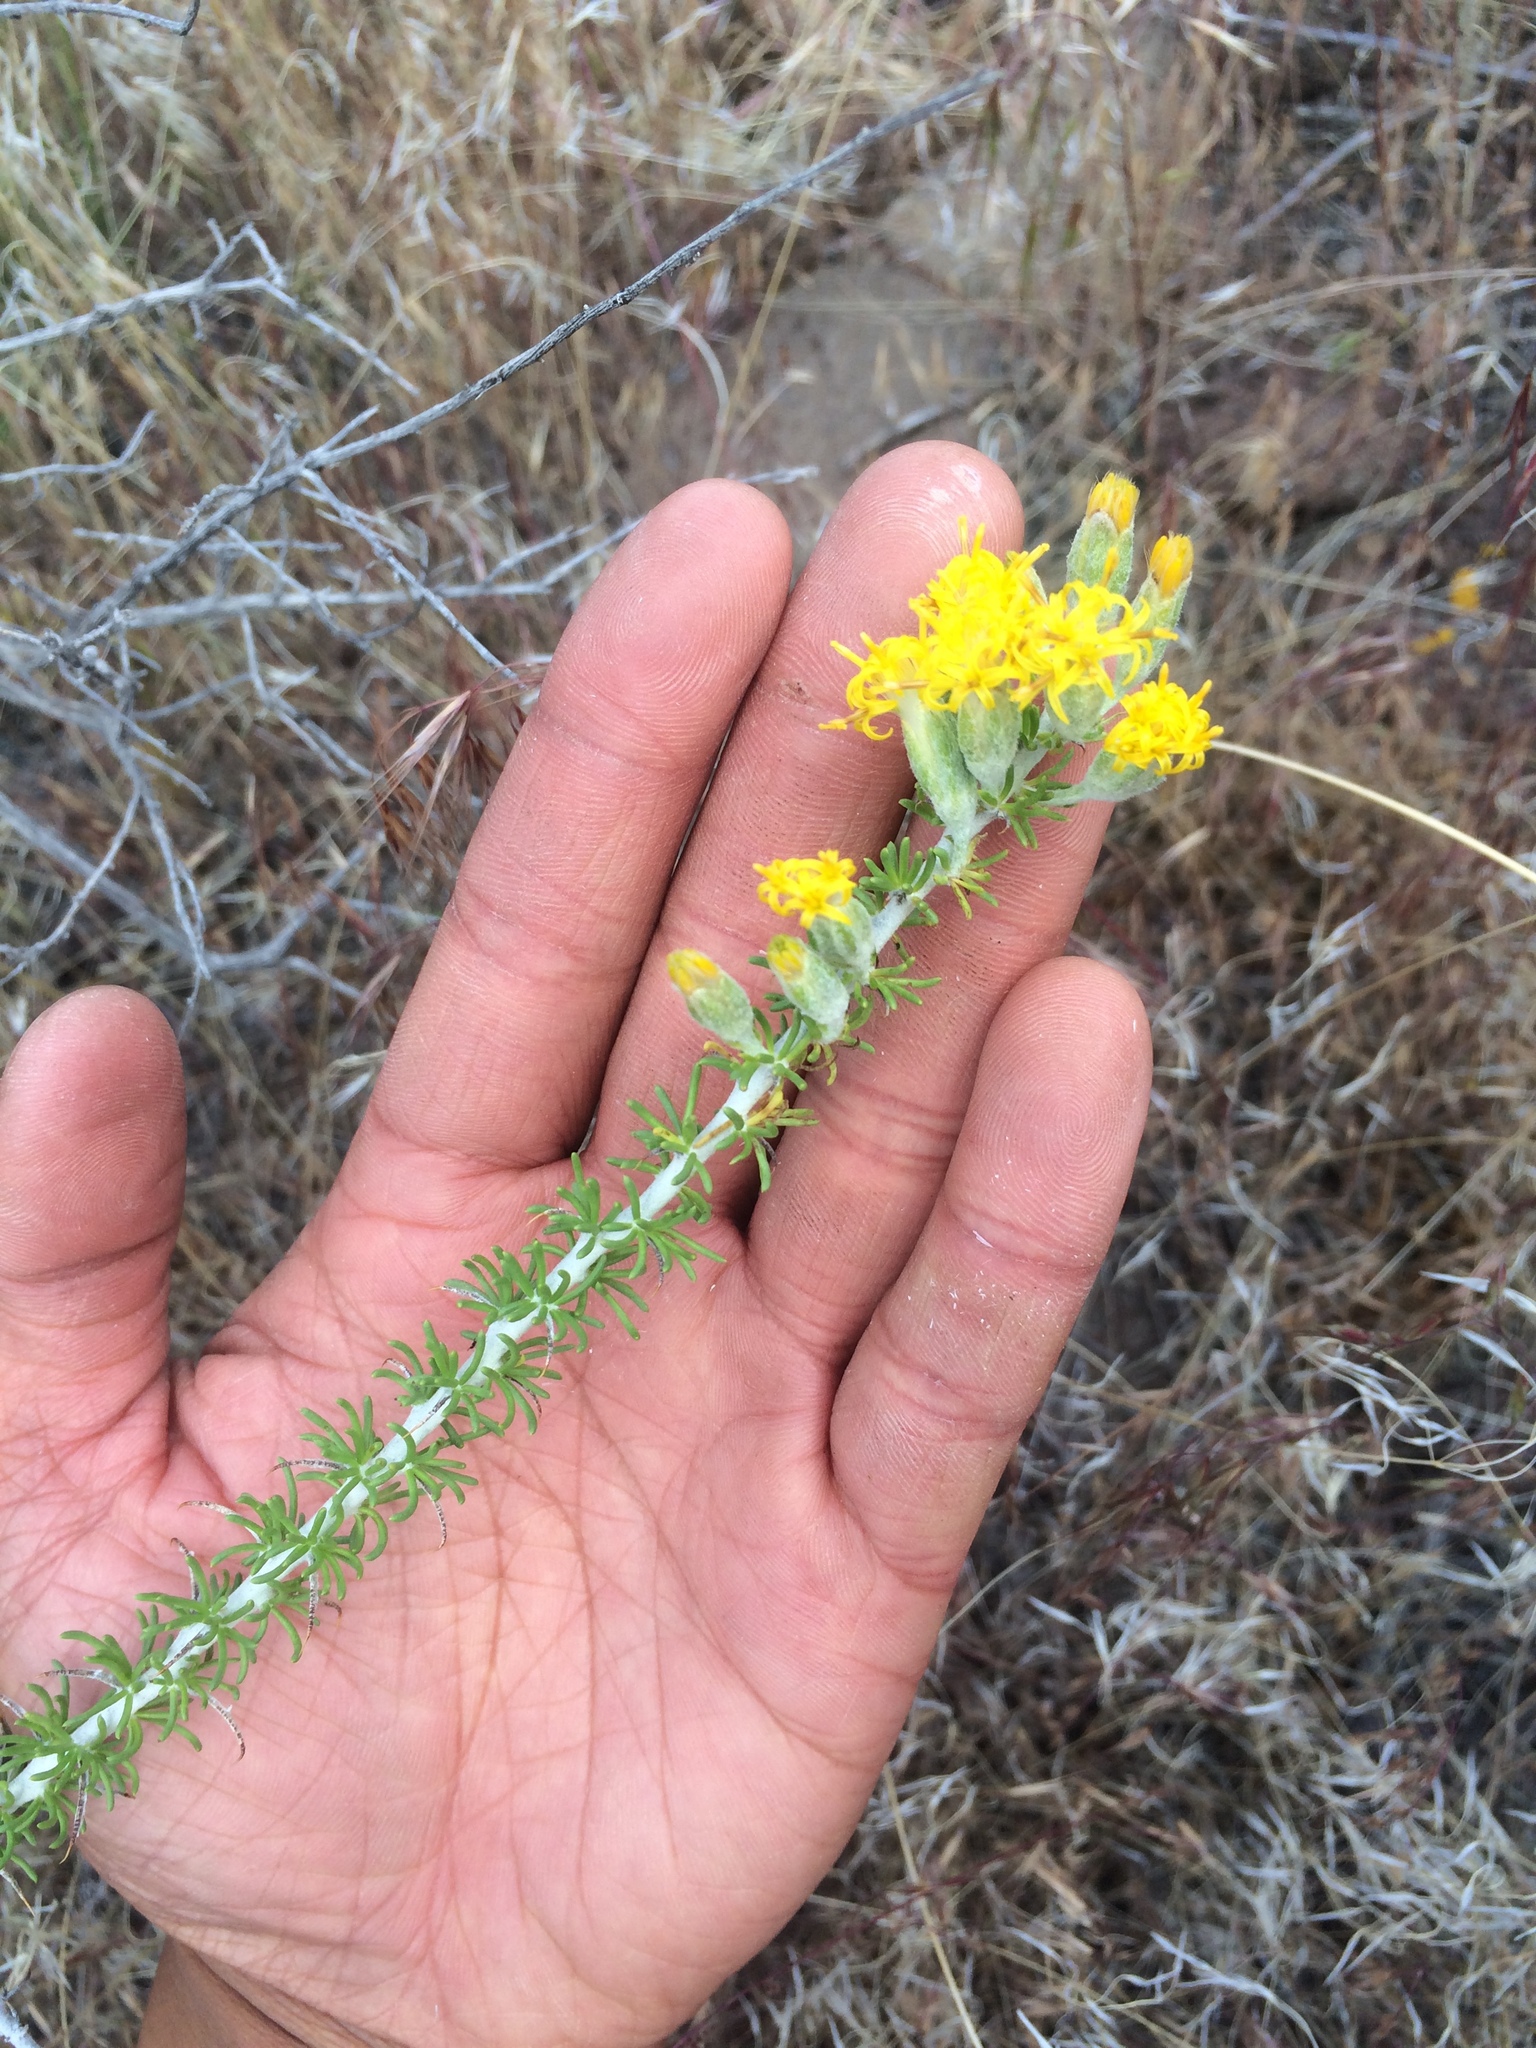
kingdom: Plantae
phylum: Tracheophyta
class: Magnoliopsida
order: Asterales
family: Asteraceae
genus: Tetradymia
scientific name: Tetradymia glabrata
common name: Smooth tetradymia
